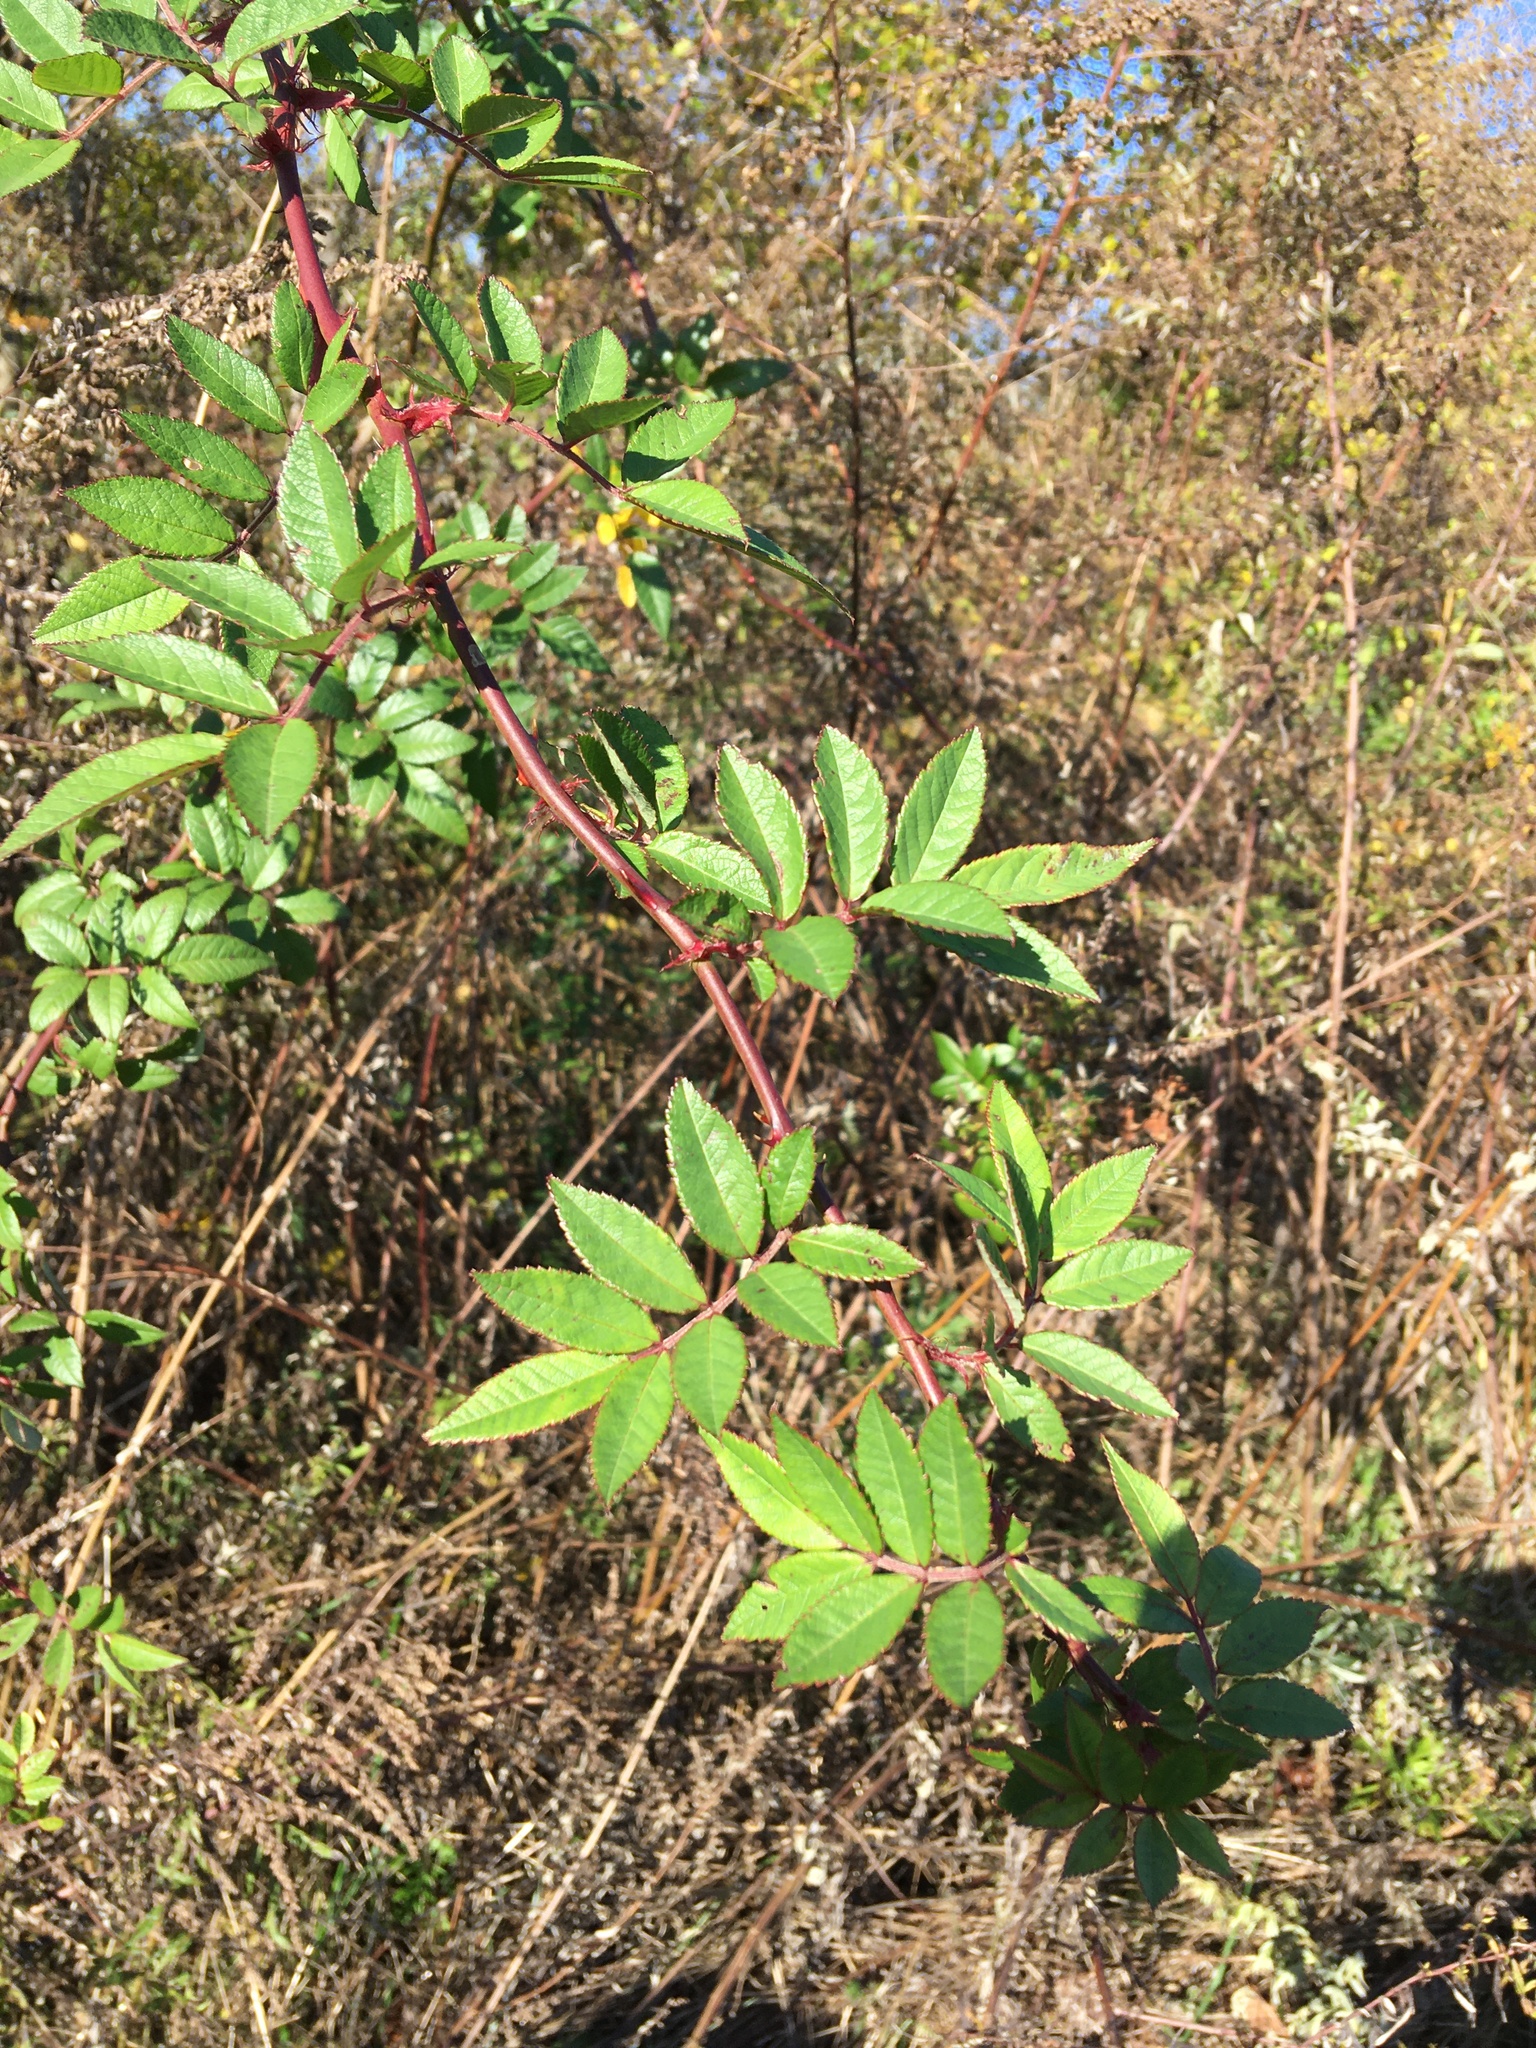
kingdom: Plantae
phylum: Tracheophyta
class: Magnoliopsida
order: Rosales
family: Rosaceae
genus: Rosa
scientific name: Rosa multiflora
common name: Multiflora rose
